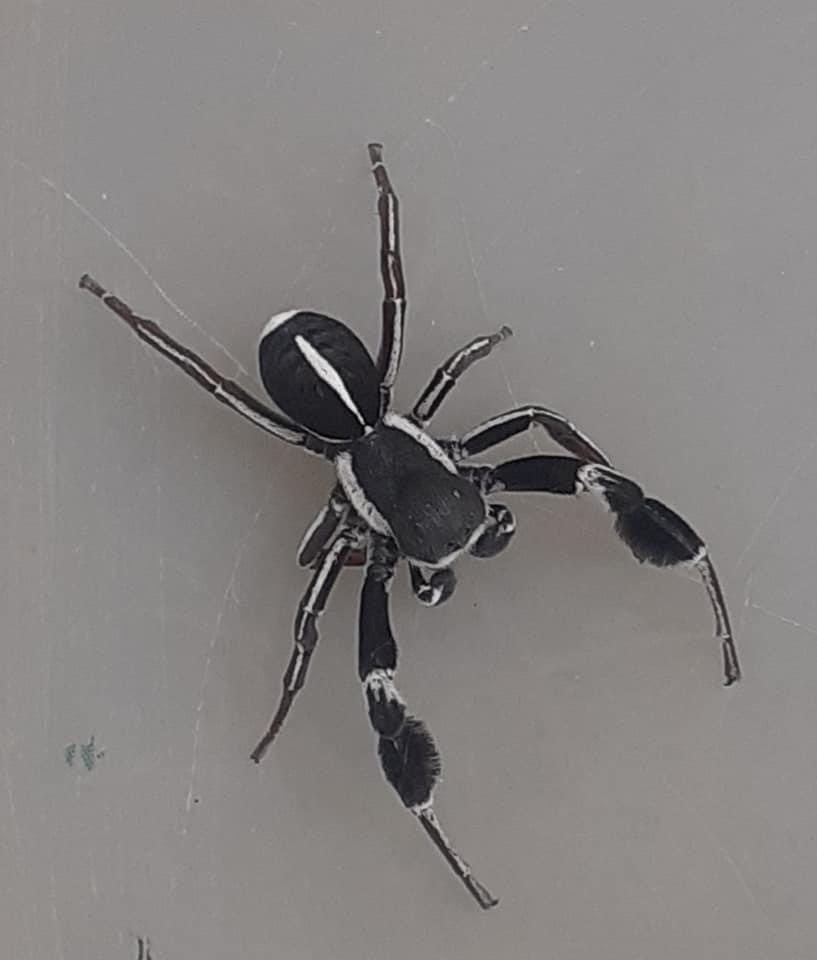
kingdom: Animalia
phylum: Arthropoda
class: Arachnida
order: Araneae
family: Eresidae
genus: Stegodyphus
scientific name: Stegodyphus africanus
